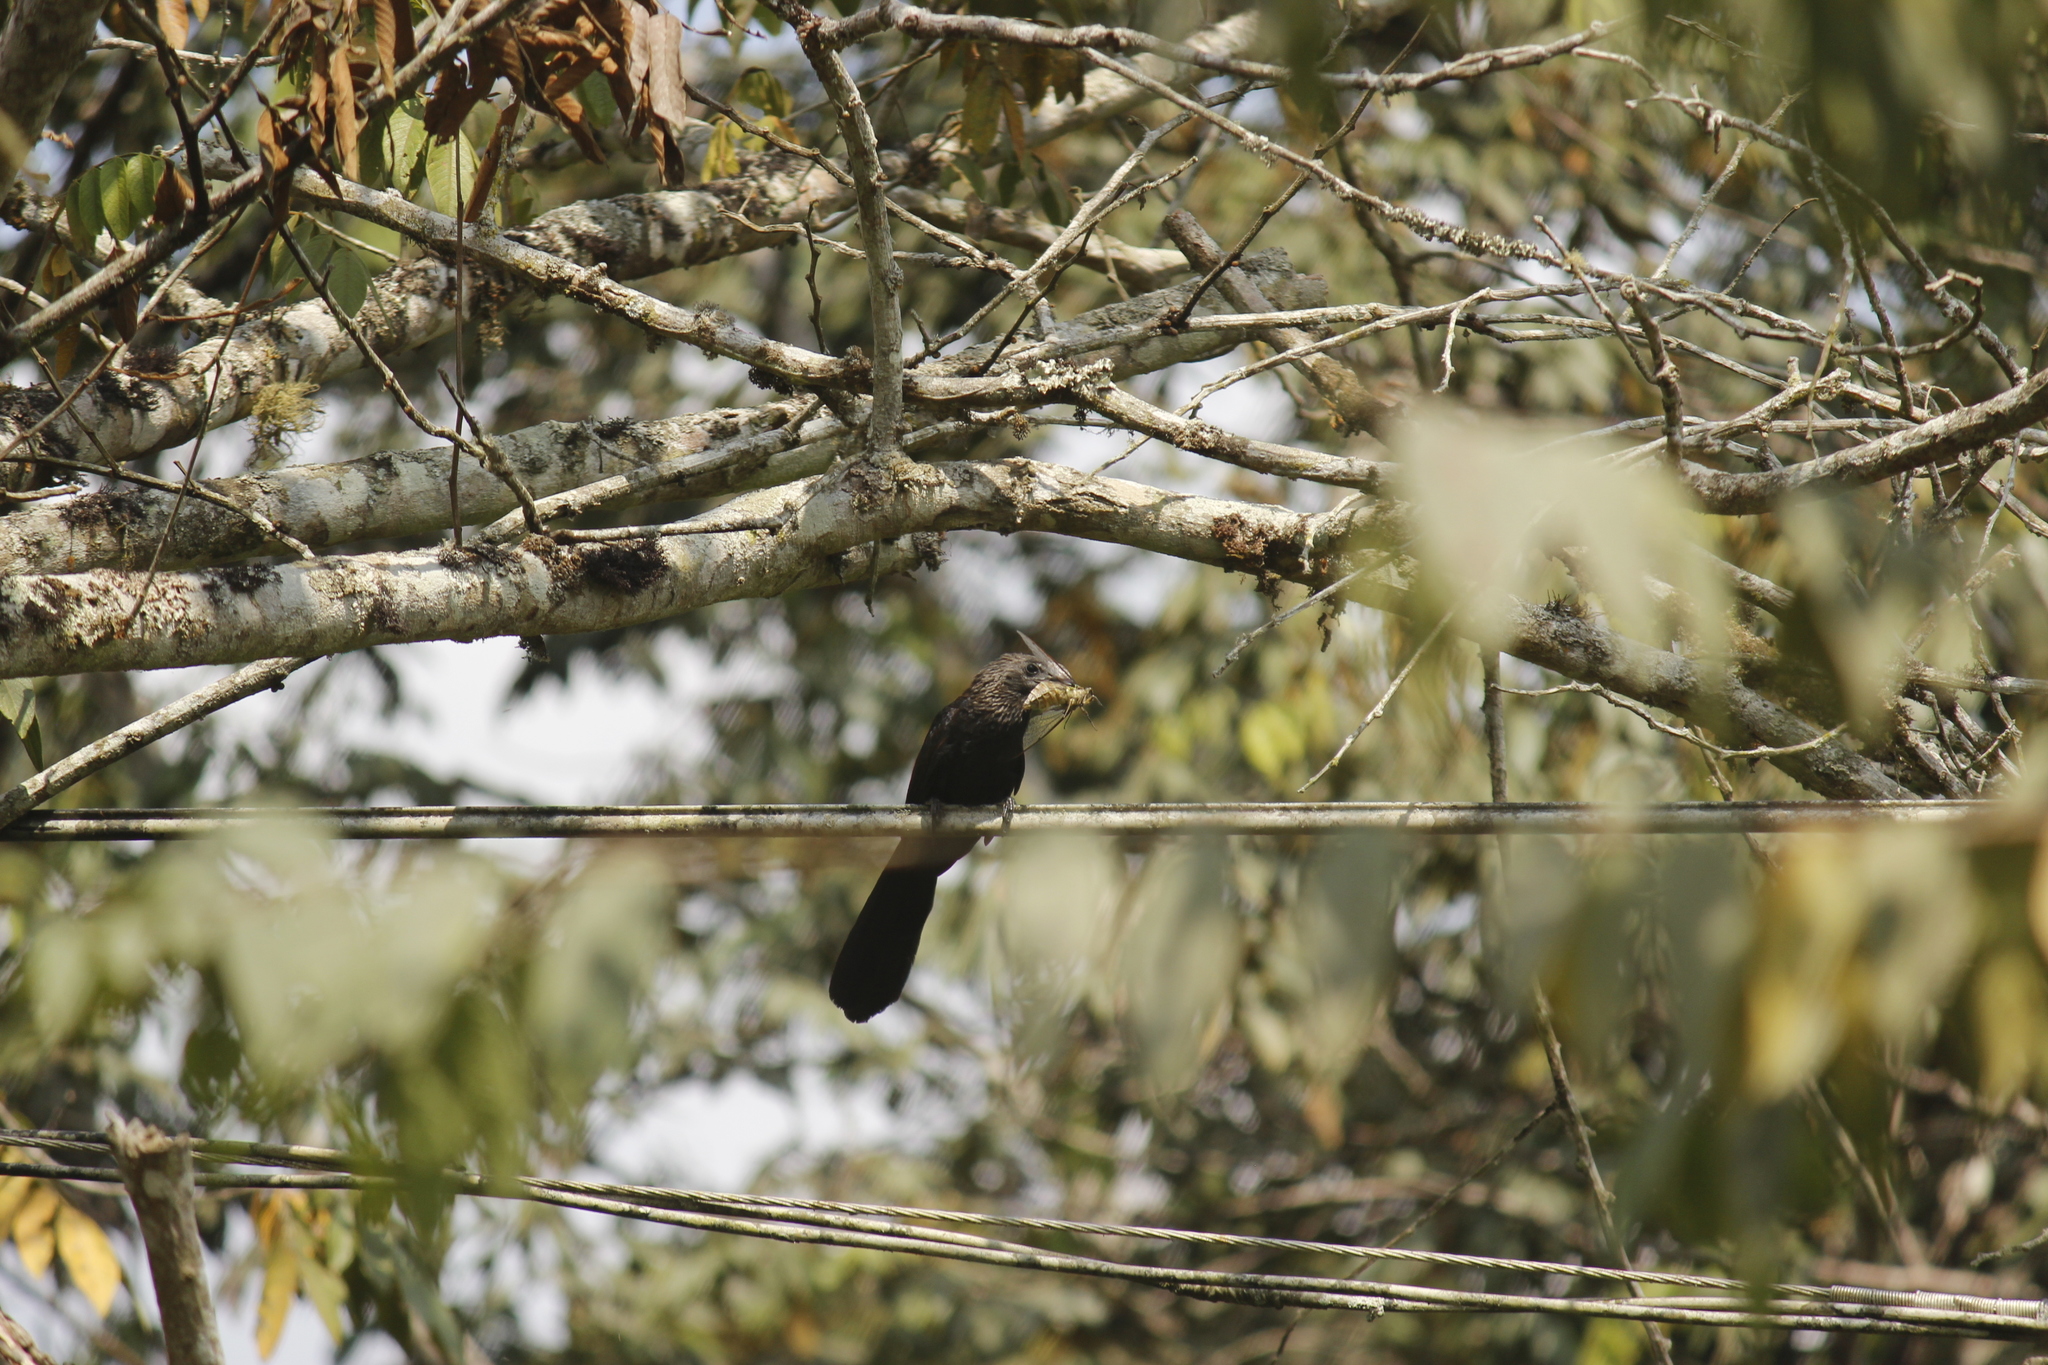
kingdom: Animalia
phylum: Chordata
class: Aves
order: Cuculiformes
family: Cuculidae
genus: Crotophaga
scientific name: Crotophaga ani
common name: Smooth-billed ani
